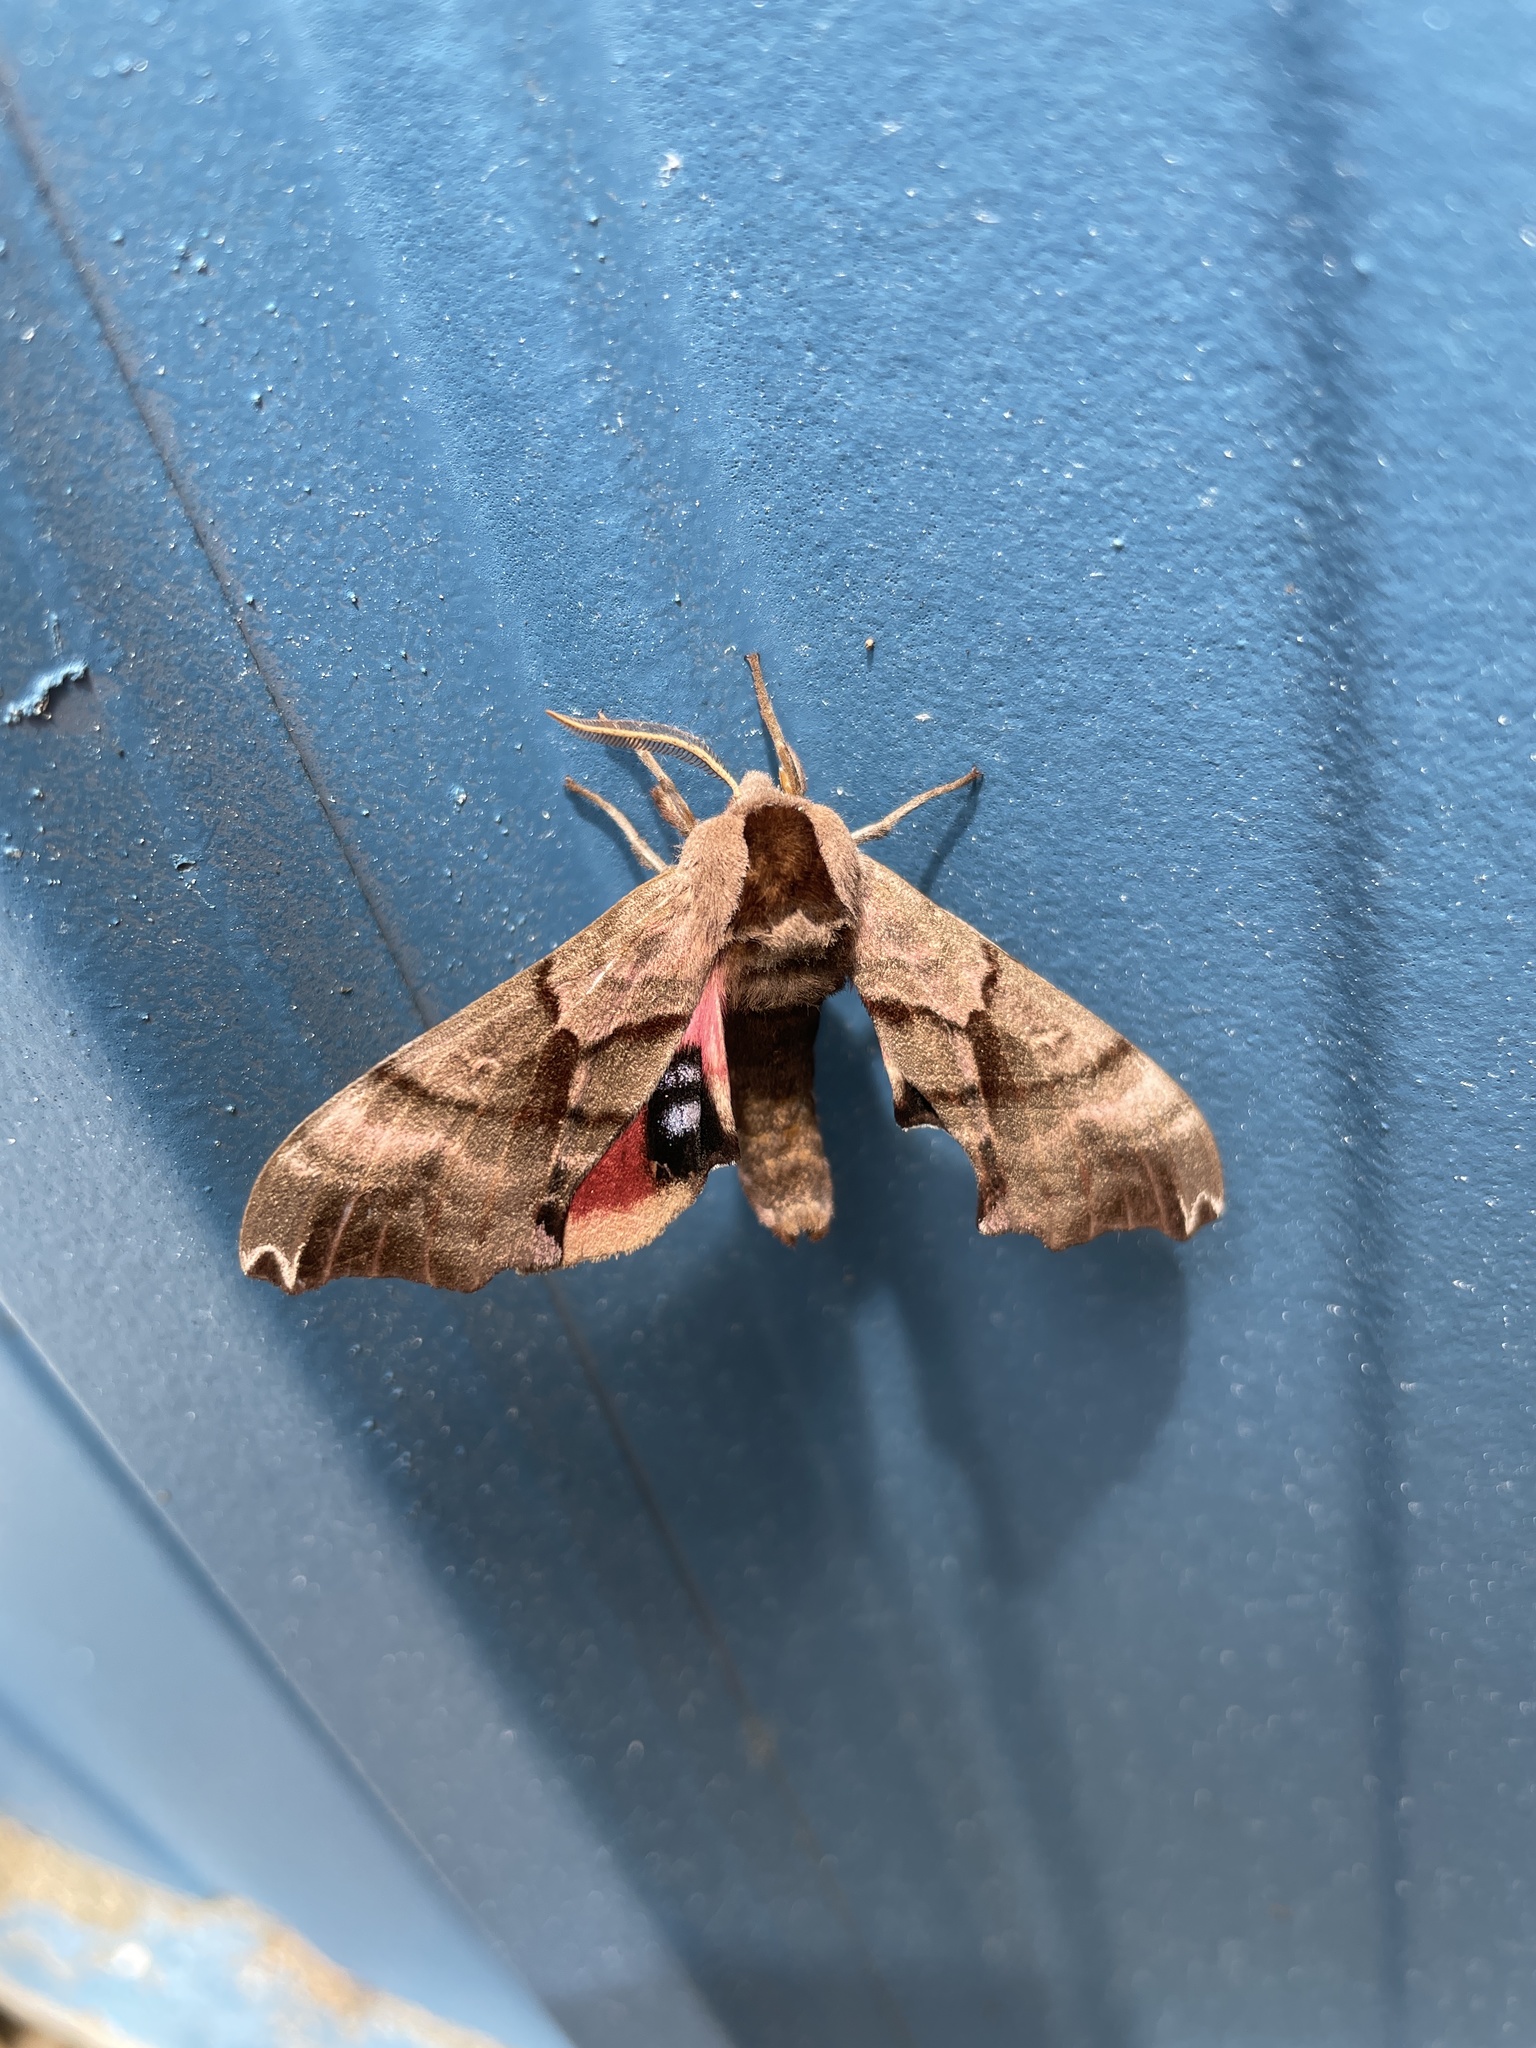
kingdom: Animalia
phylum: Arthropoda
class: Insecta
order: Lepidoptera
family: Sphingidae
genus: Smerinthus
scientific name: Smerinthus jamaicensis
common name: Twin spotted sphinx
